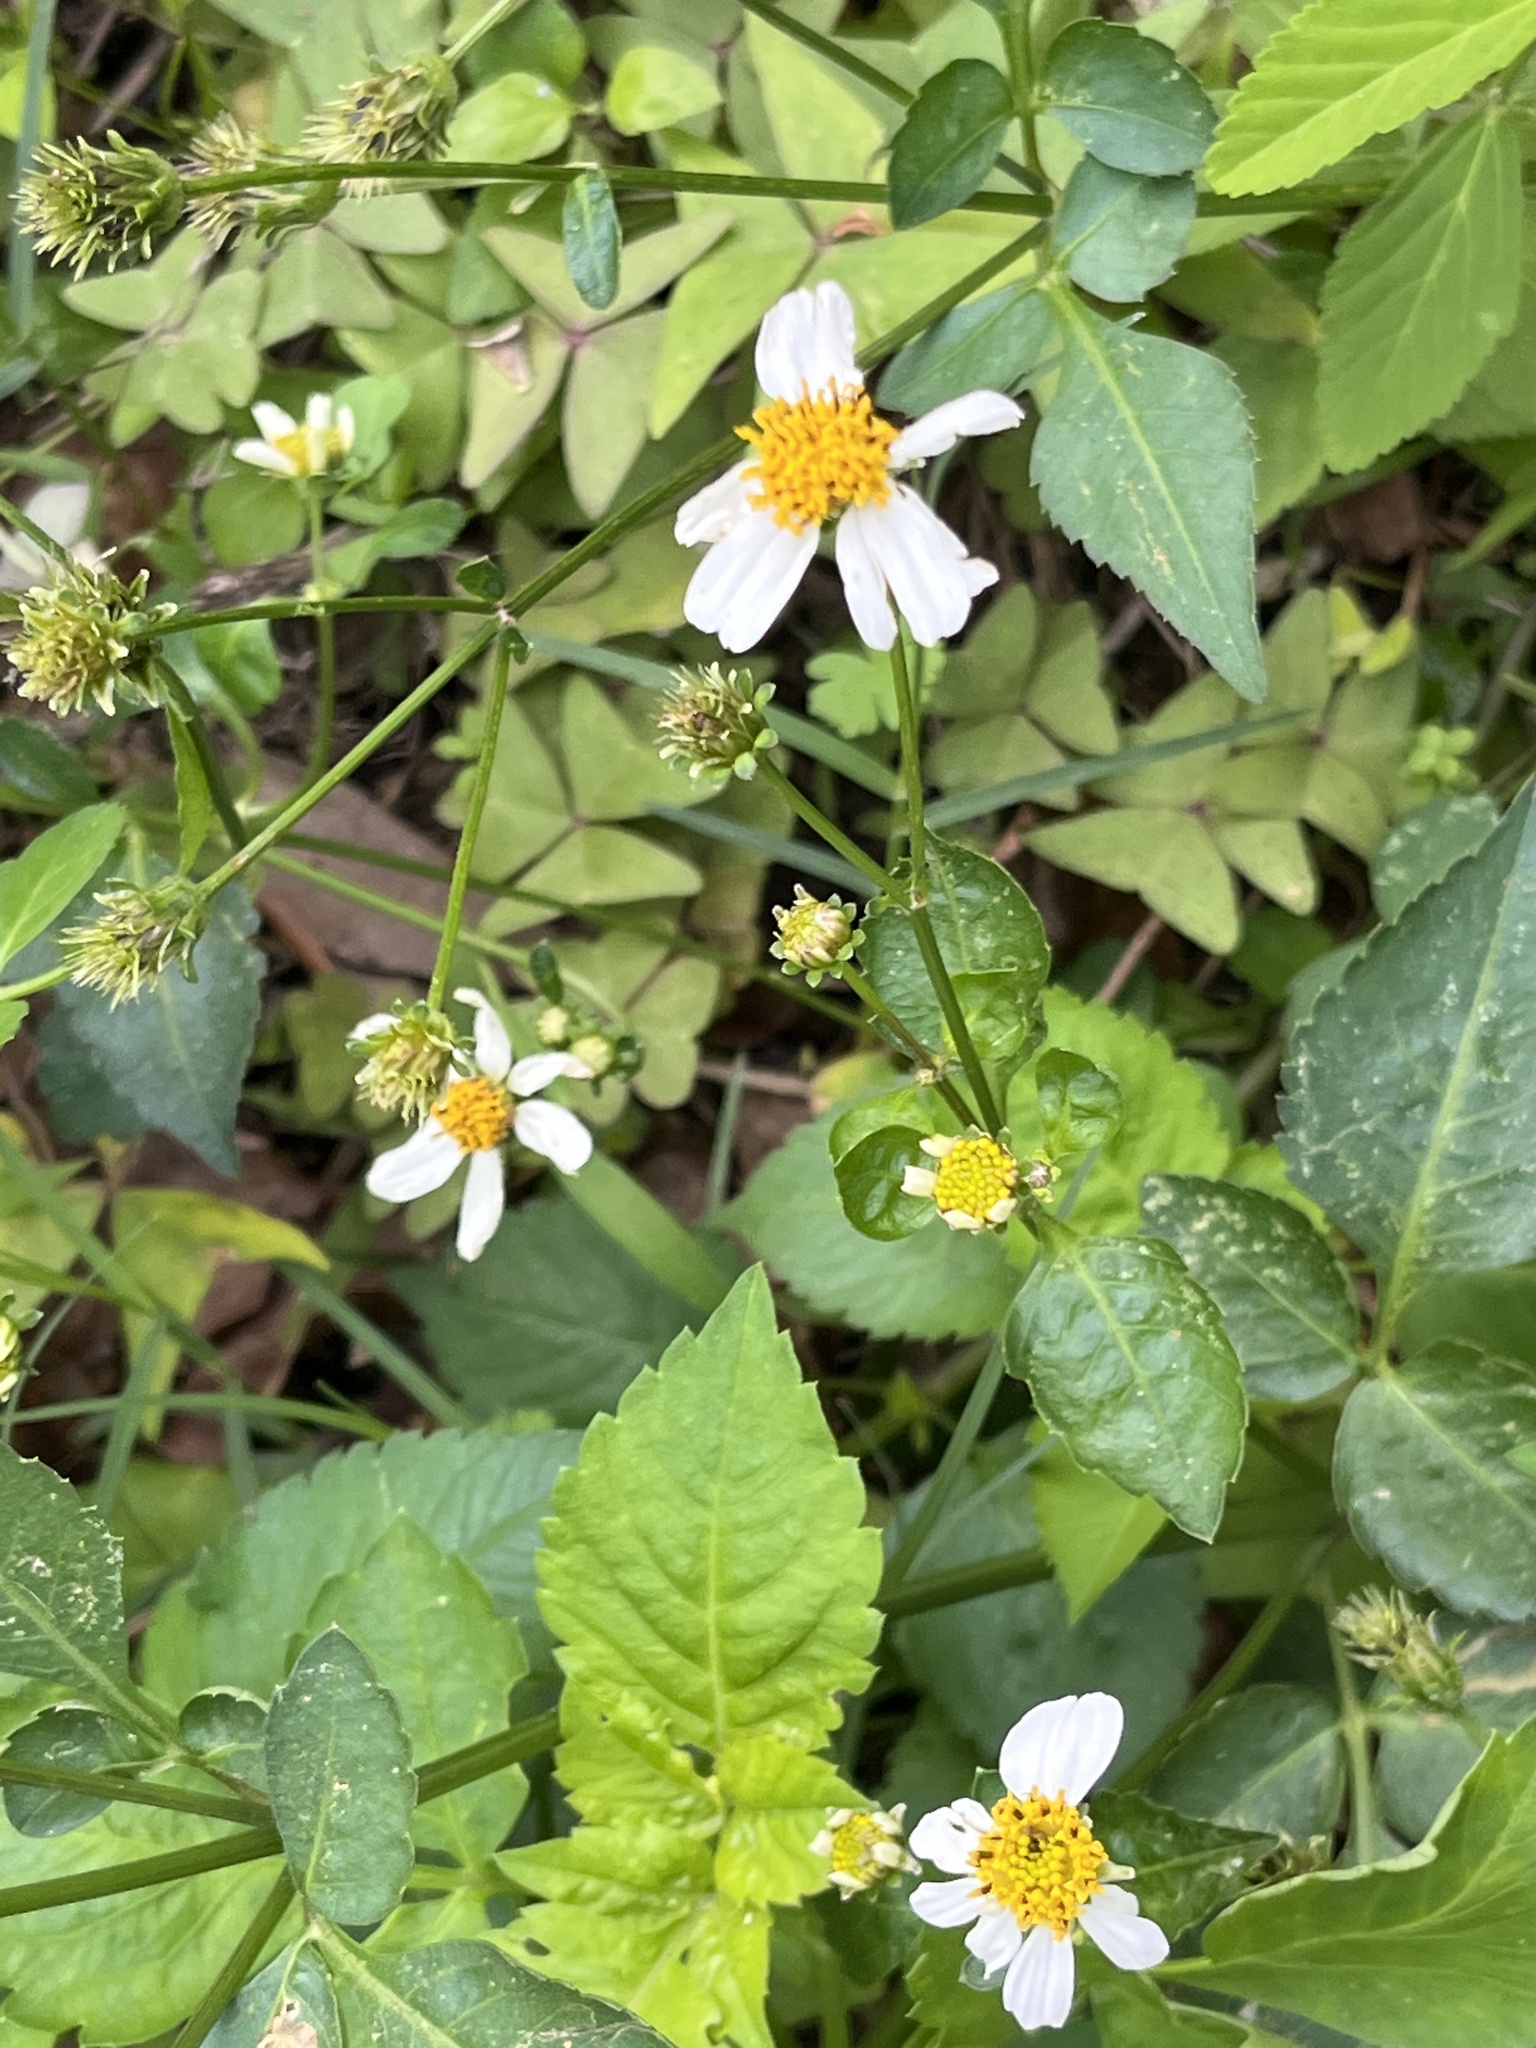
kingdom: Plantae
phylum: Tracheophyta
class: Magnoliopsida
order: Asterales
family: Asteraceae
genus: Bidens
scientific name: Bidens alba
